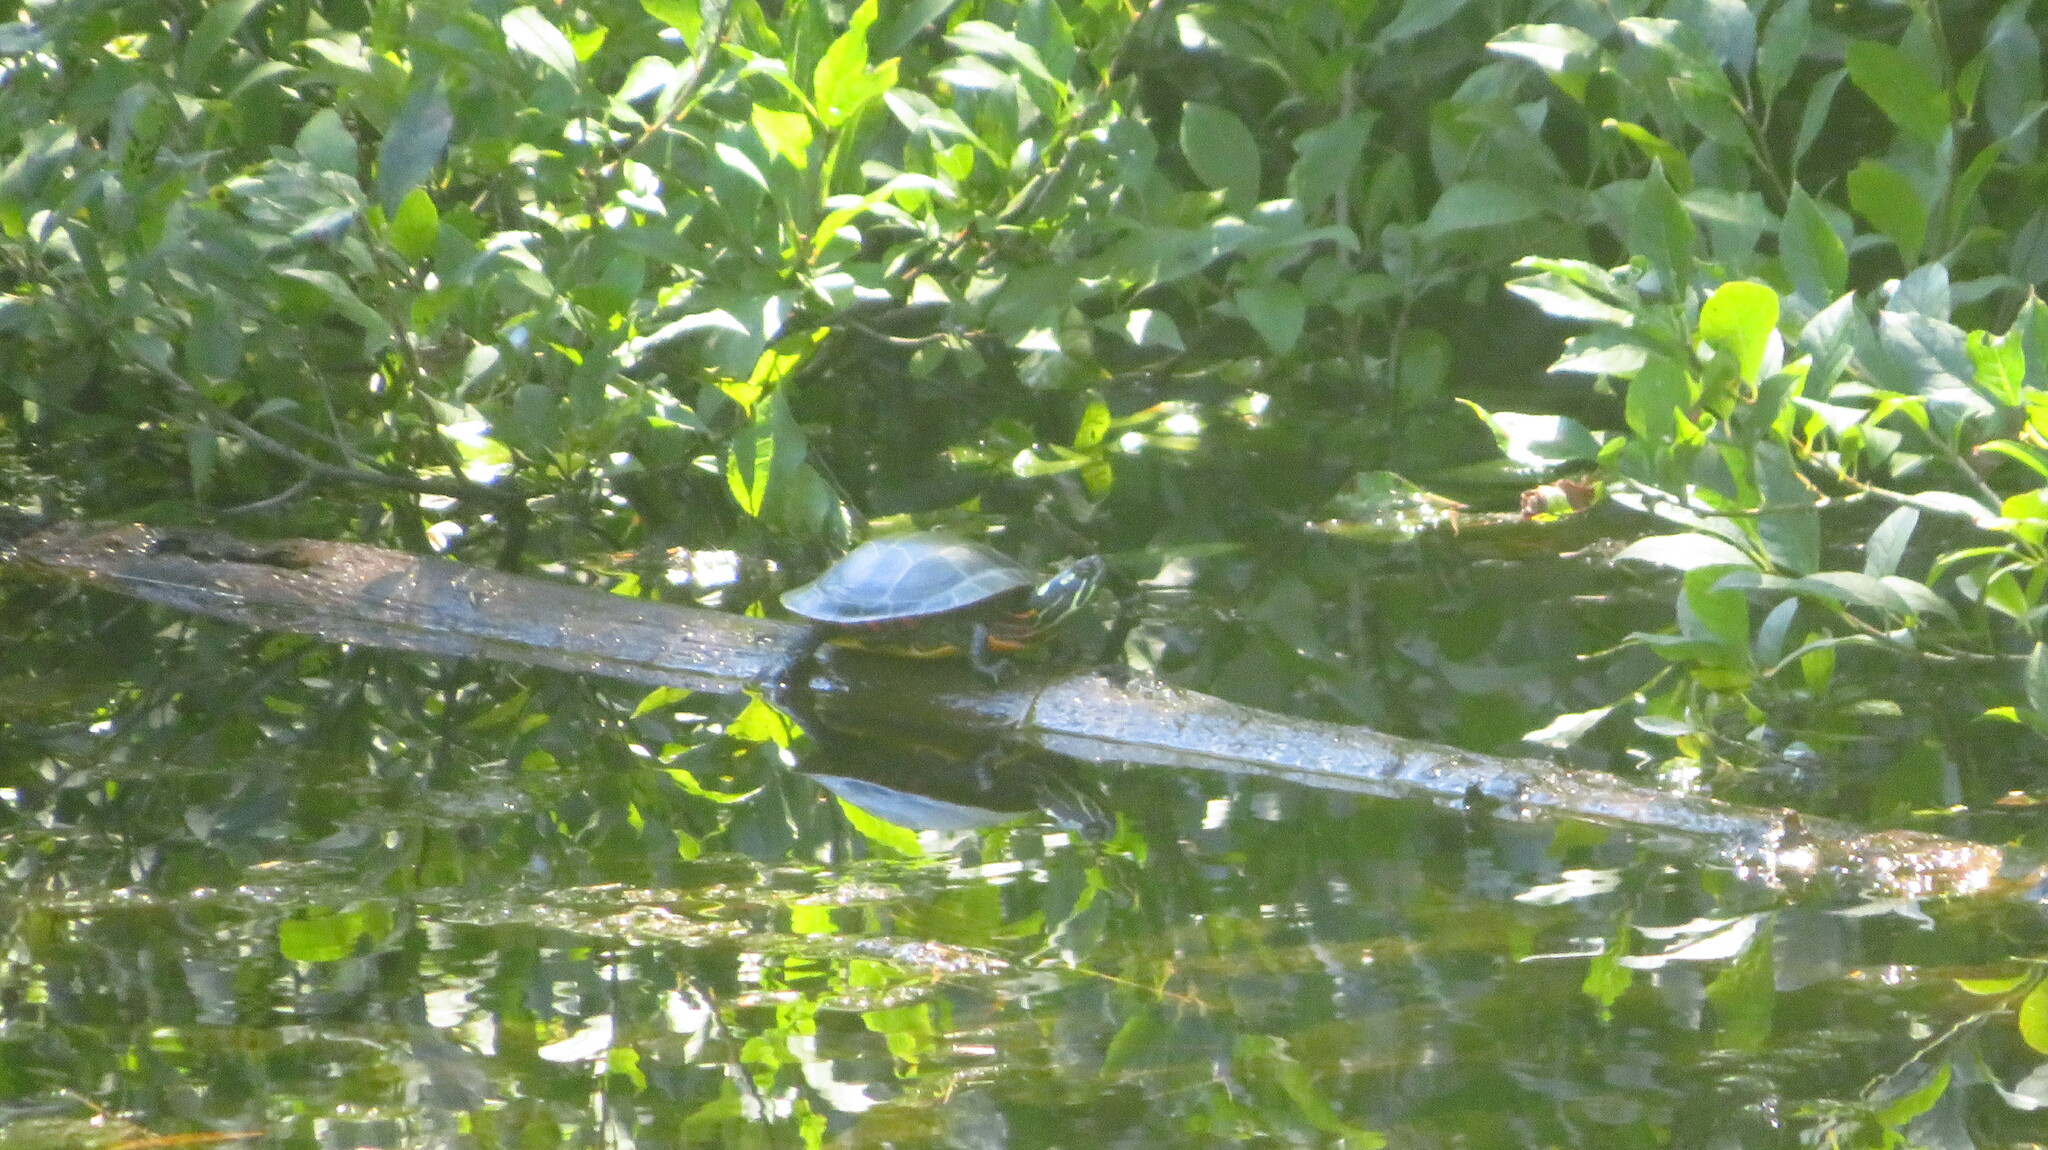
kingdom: Animalia
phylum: Chordata
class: Testudines
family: Emydidae
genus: Chrysemys
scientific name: Chrysemys picta
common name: Painted turtle
